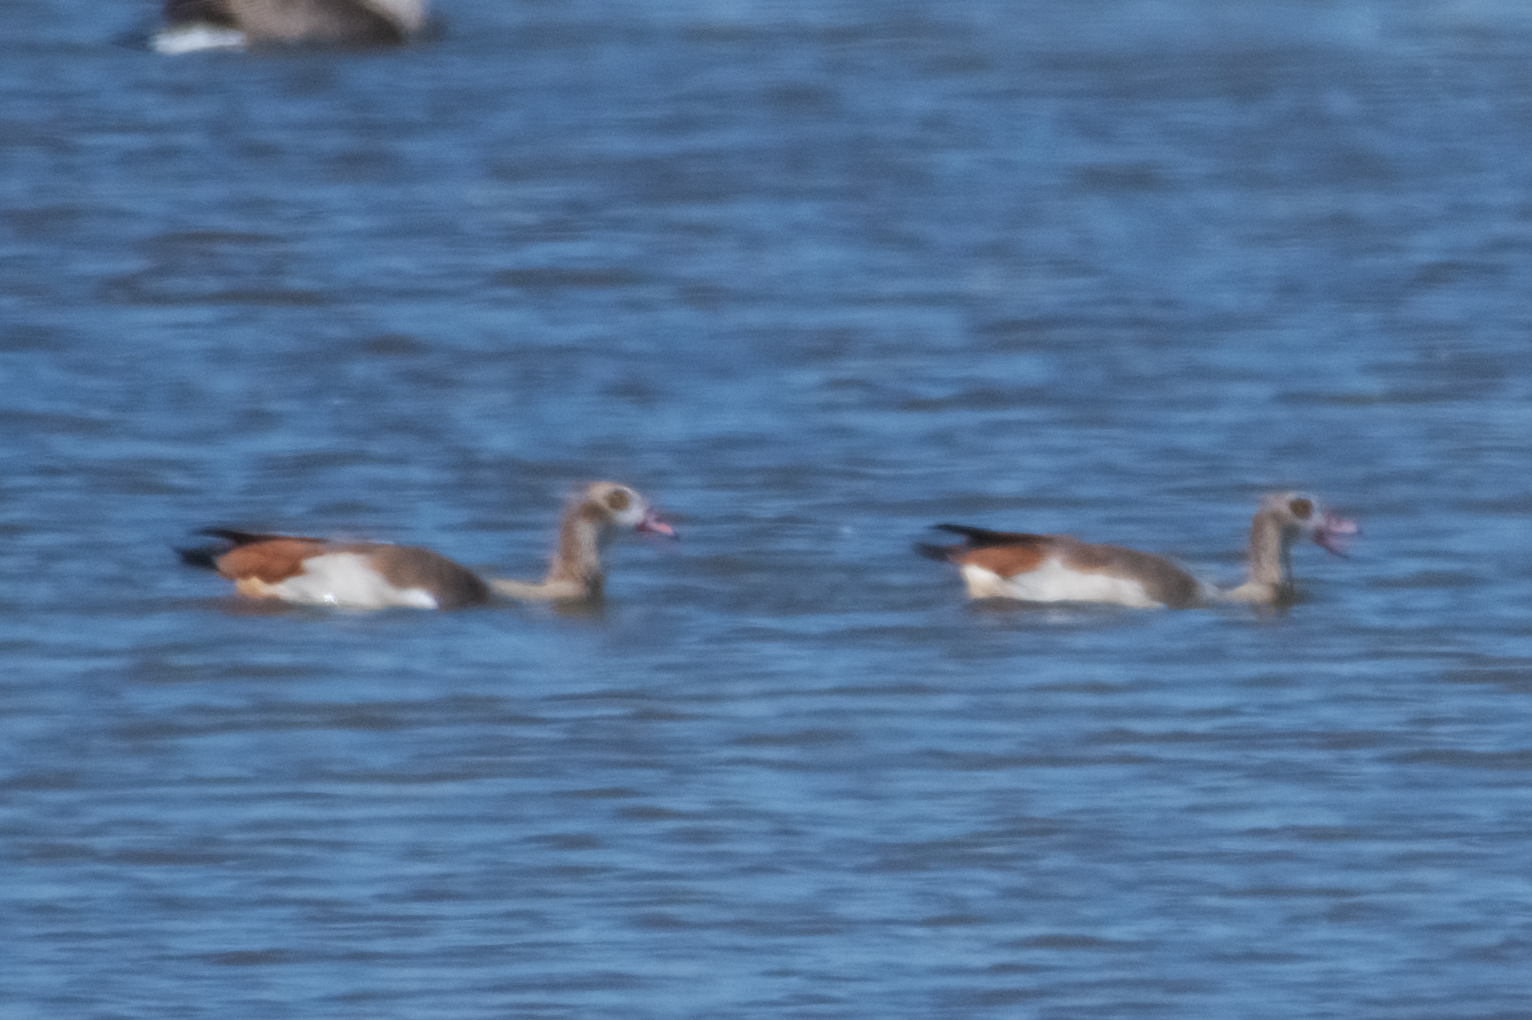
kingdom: Animalia
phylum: Chordata
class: Aves
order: Anseriformes
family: Anatidae
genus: Alopochen
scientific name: Alopochen aegyptiaca
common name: Egyptian goose
